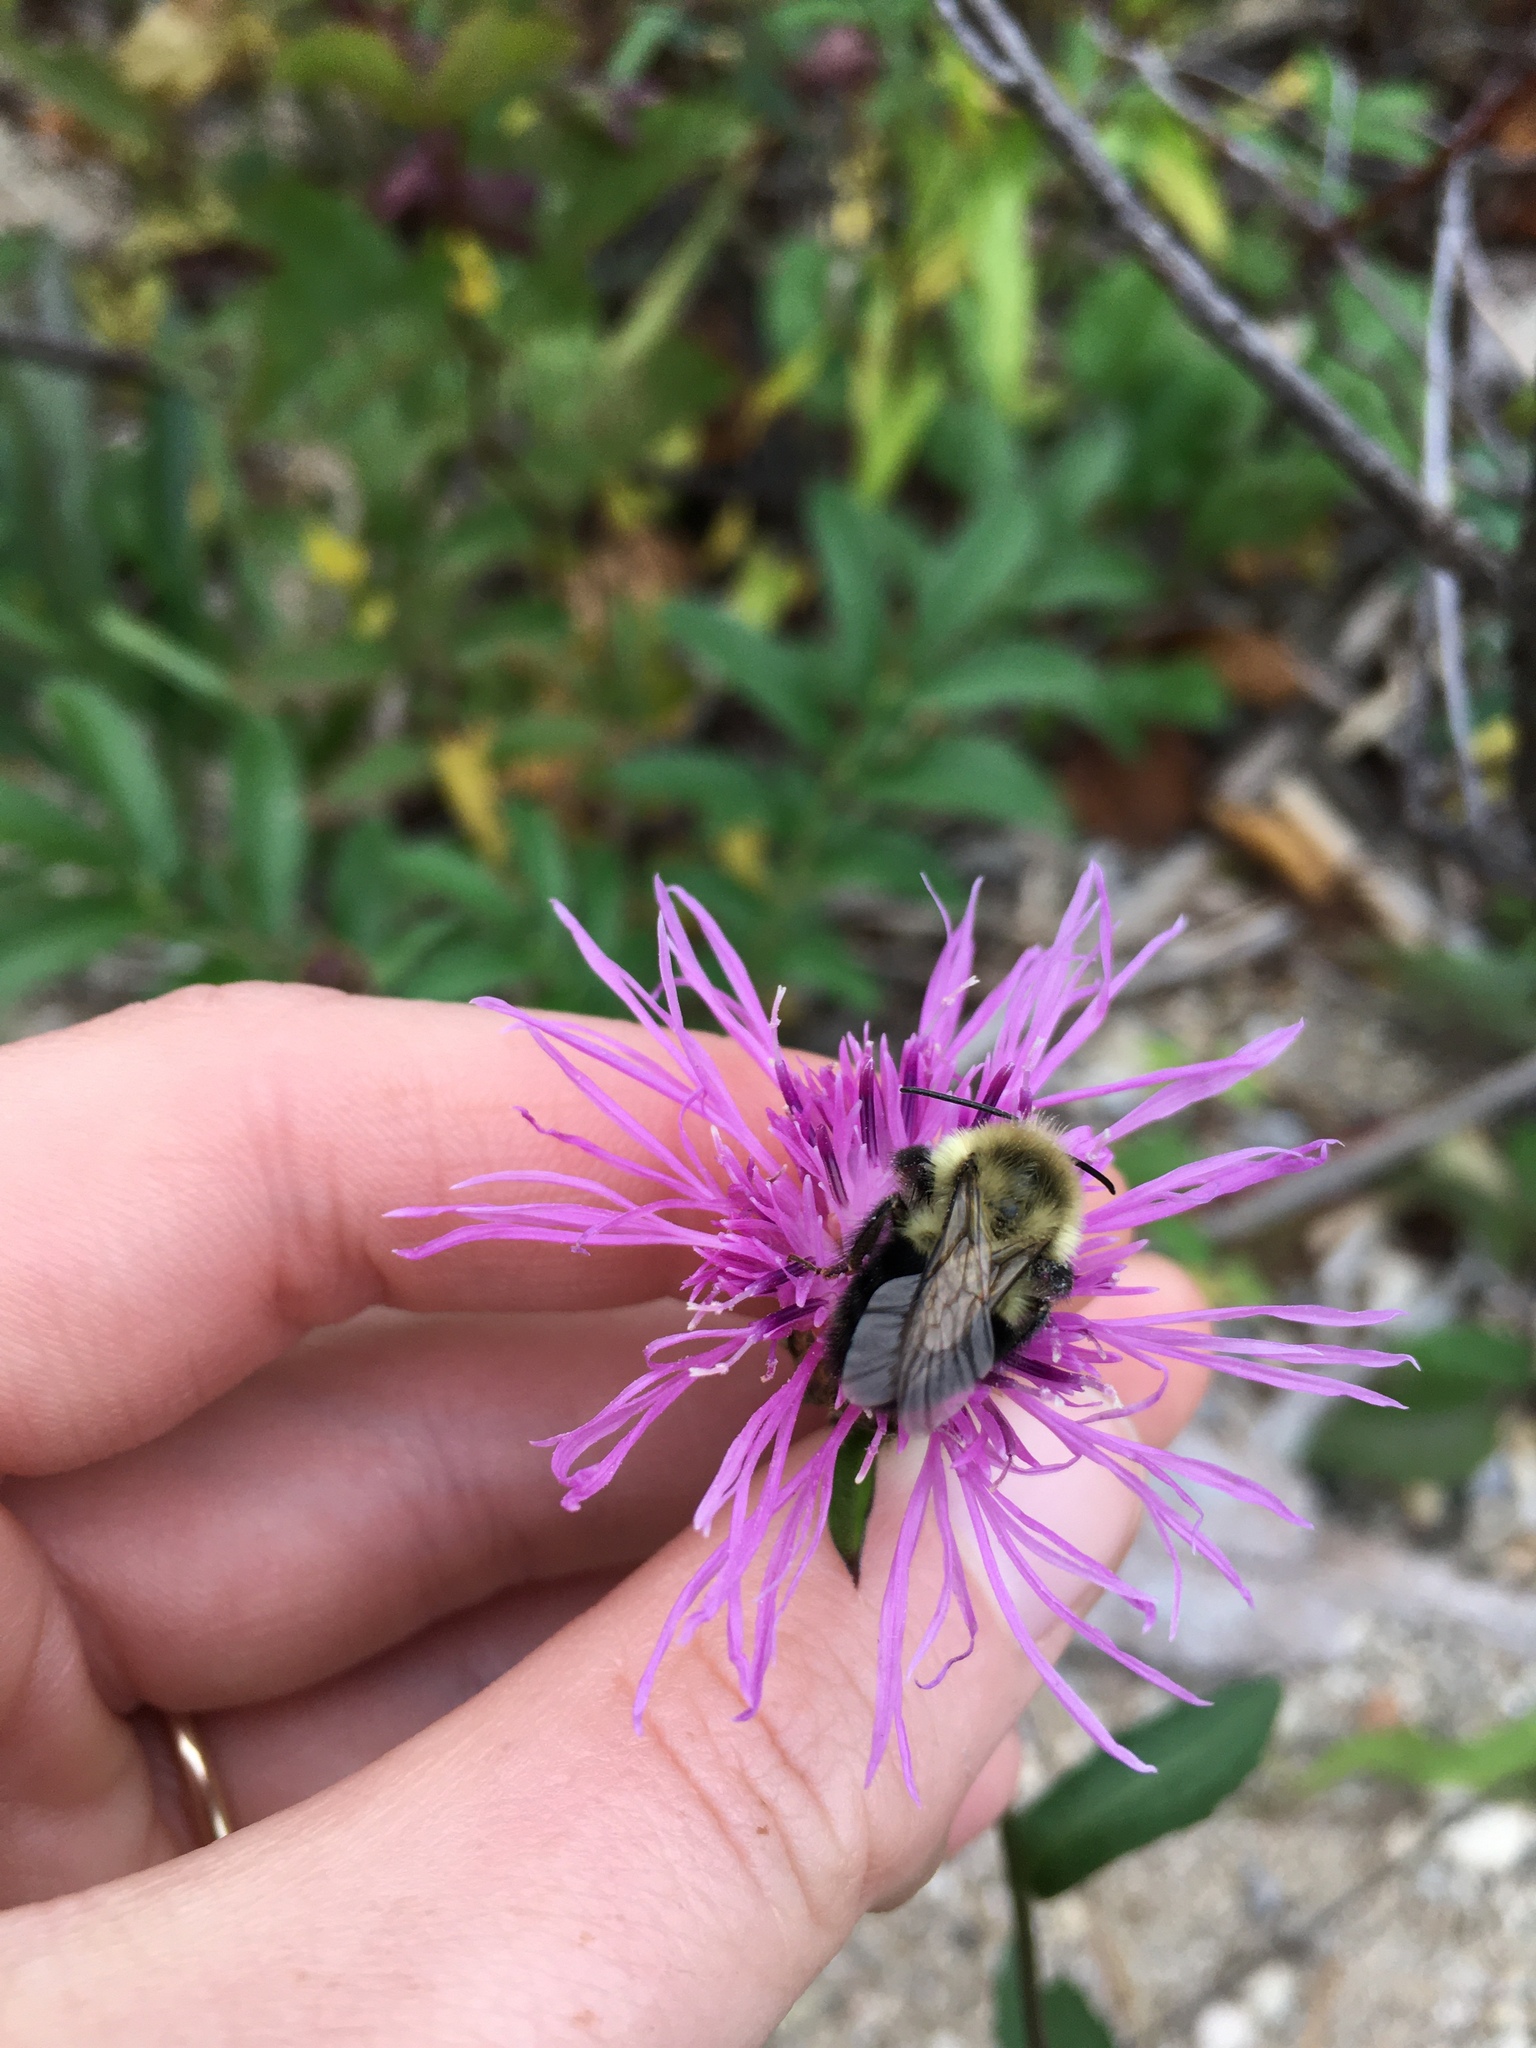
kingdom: Animalia
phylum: Arthropoda
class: Insecta
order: Hymenoptera
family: Apidae
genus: Bombus
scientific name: Bombus impatiens
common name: Common eastern bumble bee
